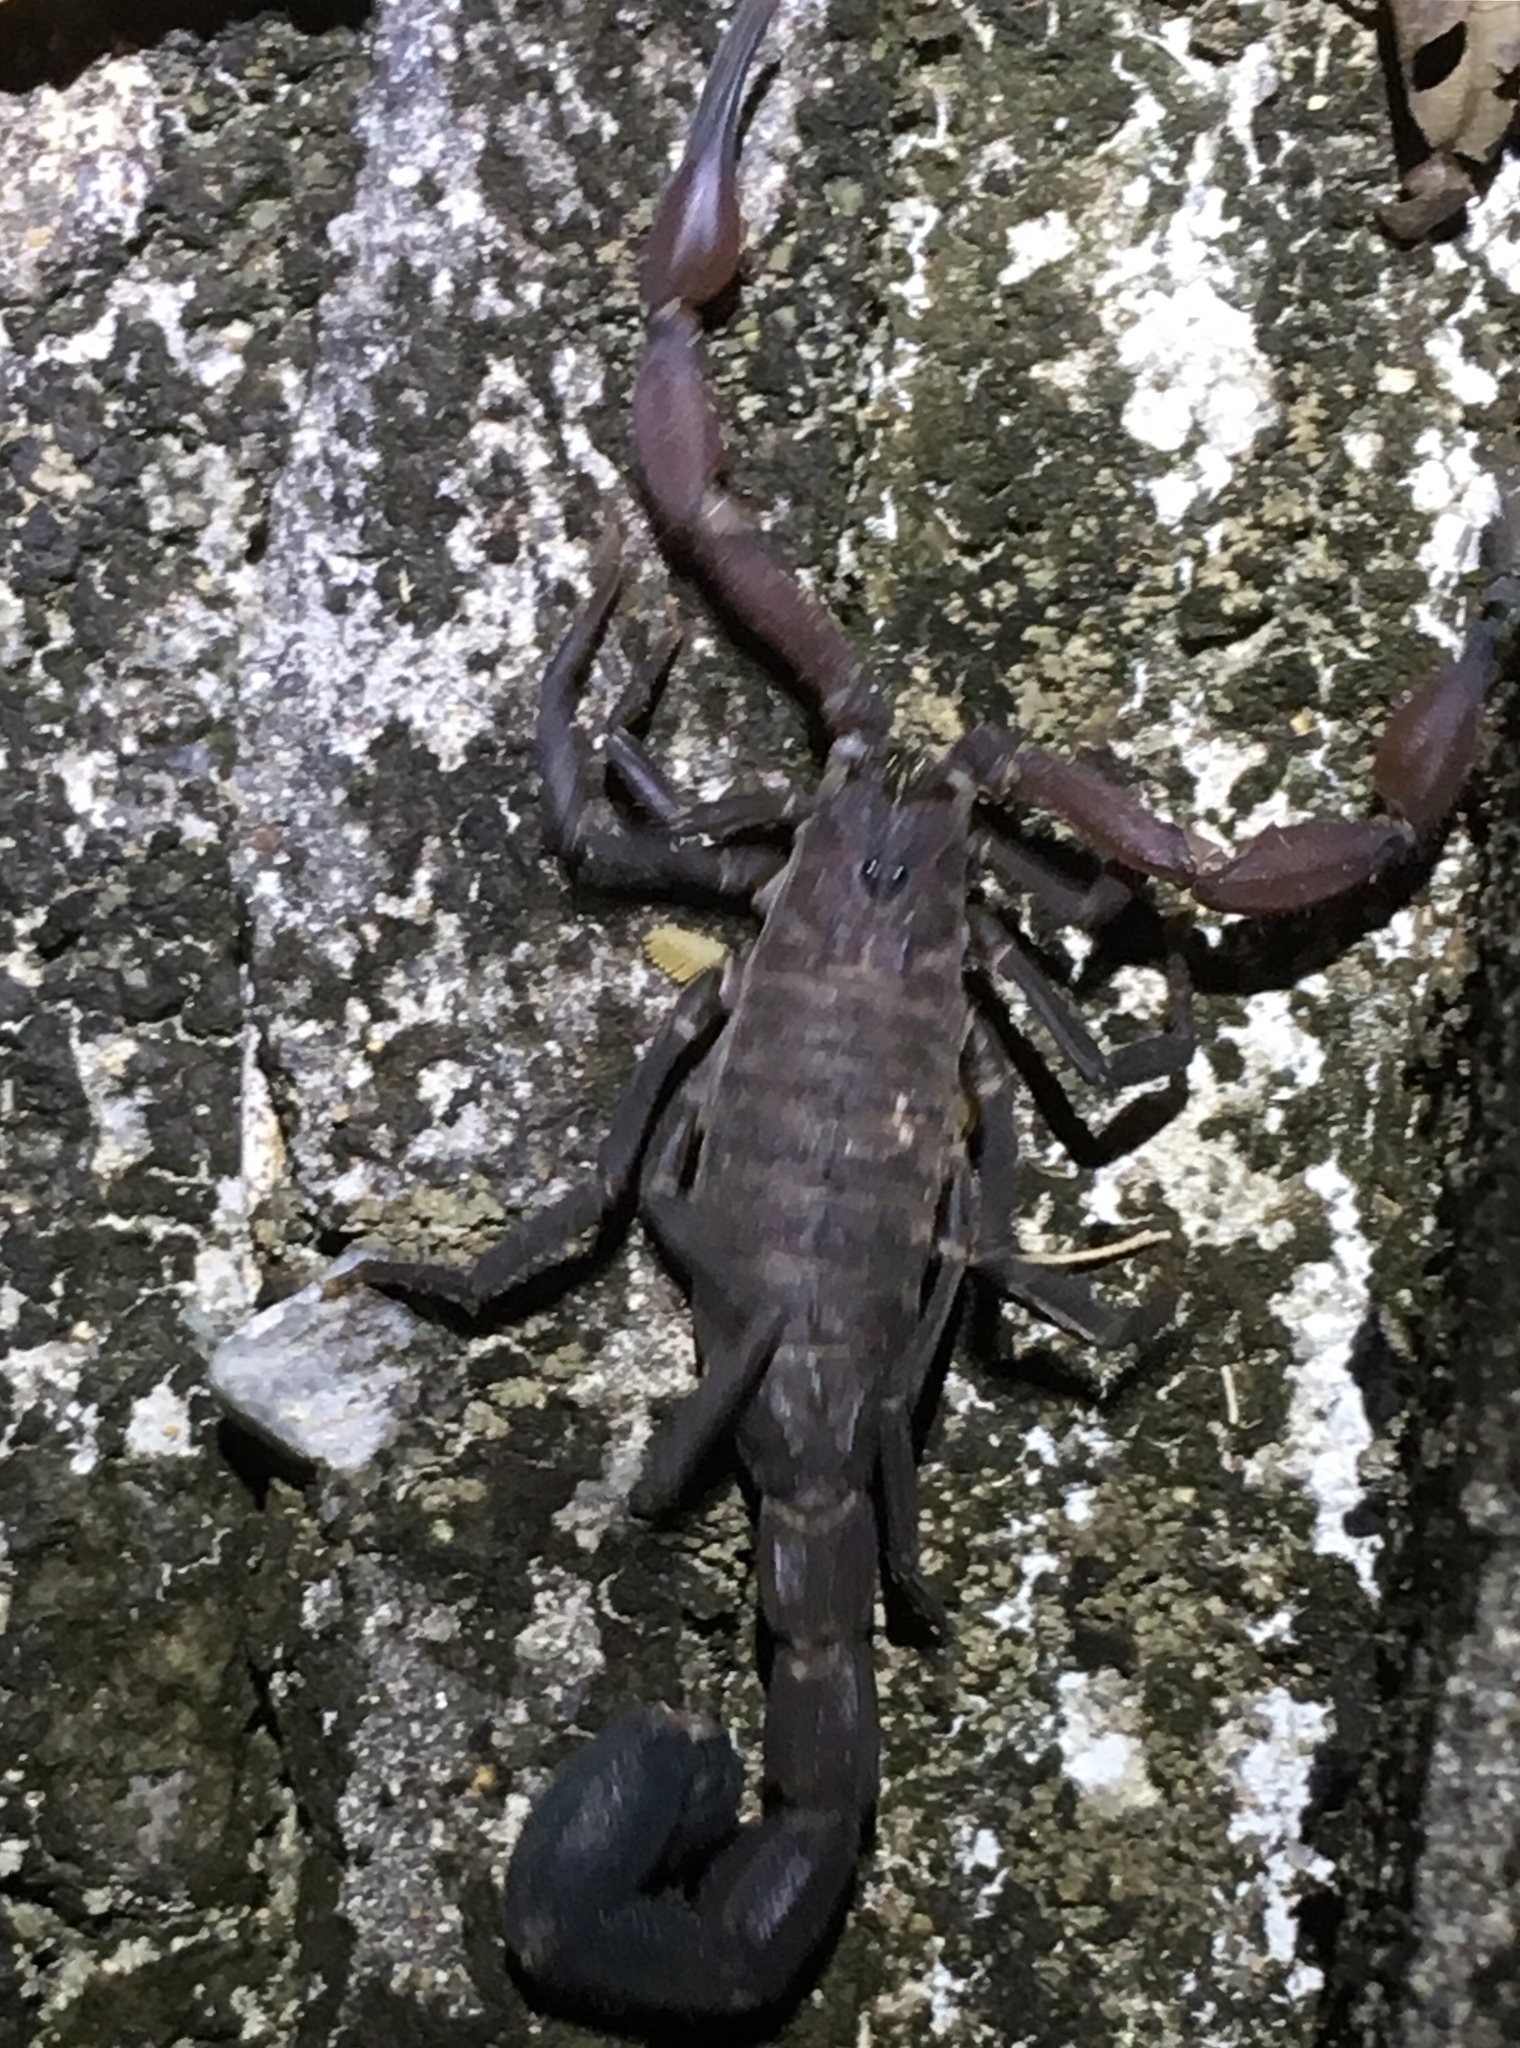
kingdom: Animalia
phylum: Arthropoda
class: Arachnida
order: Scorpiones
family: Buthidae
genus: Tityus
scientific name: Tityus pachyurus
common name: Scorpions
